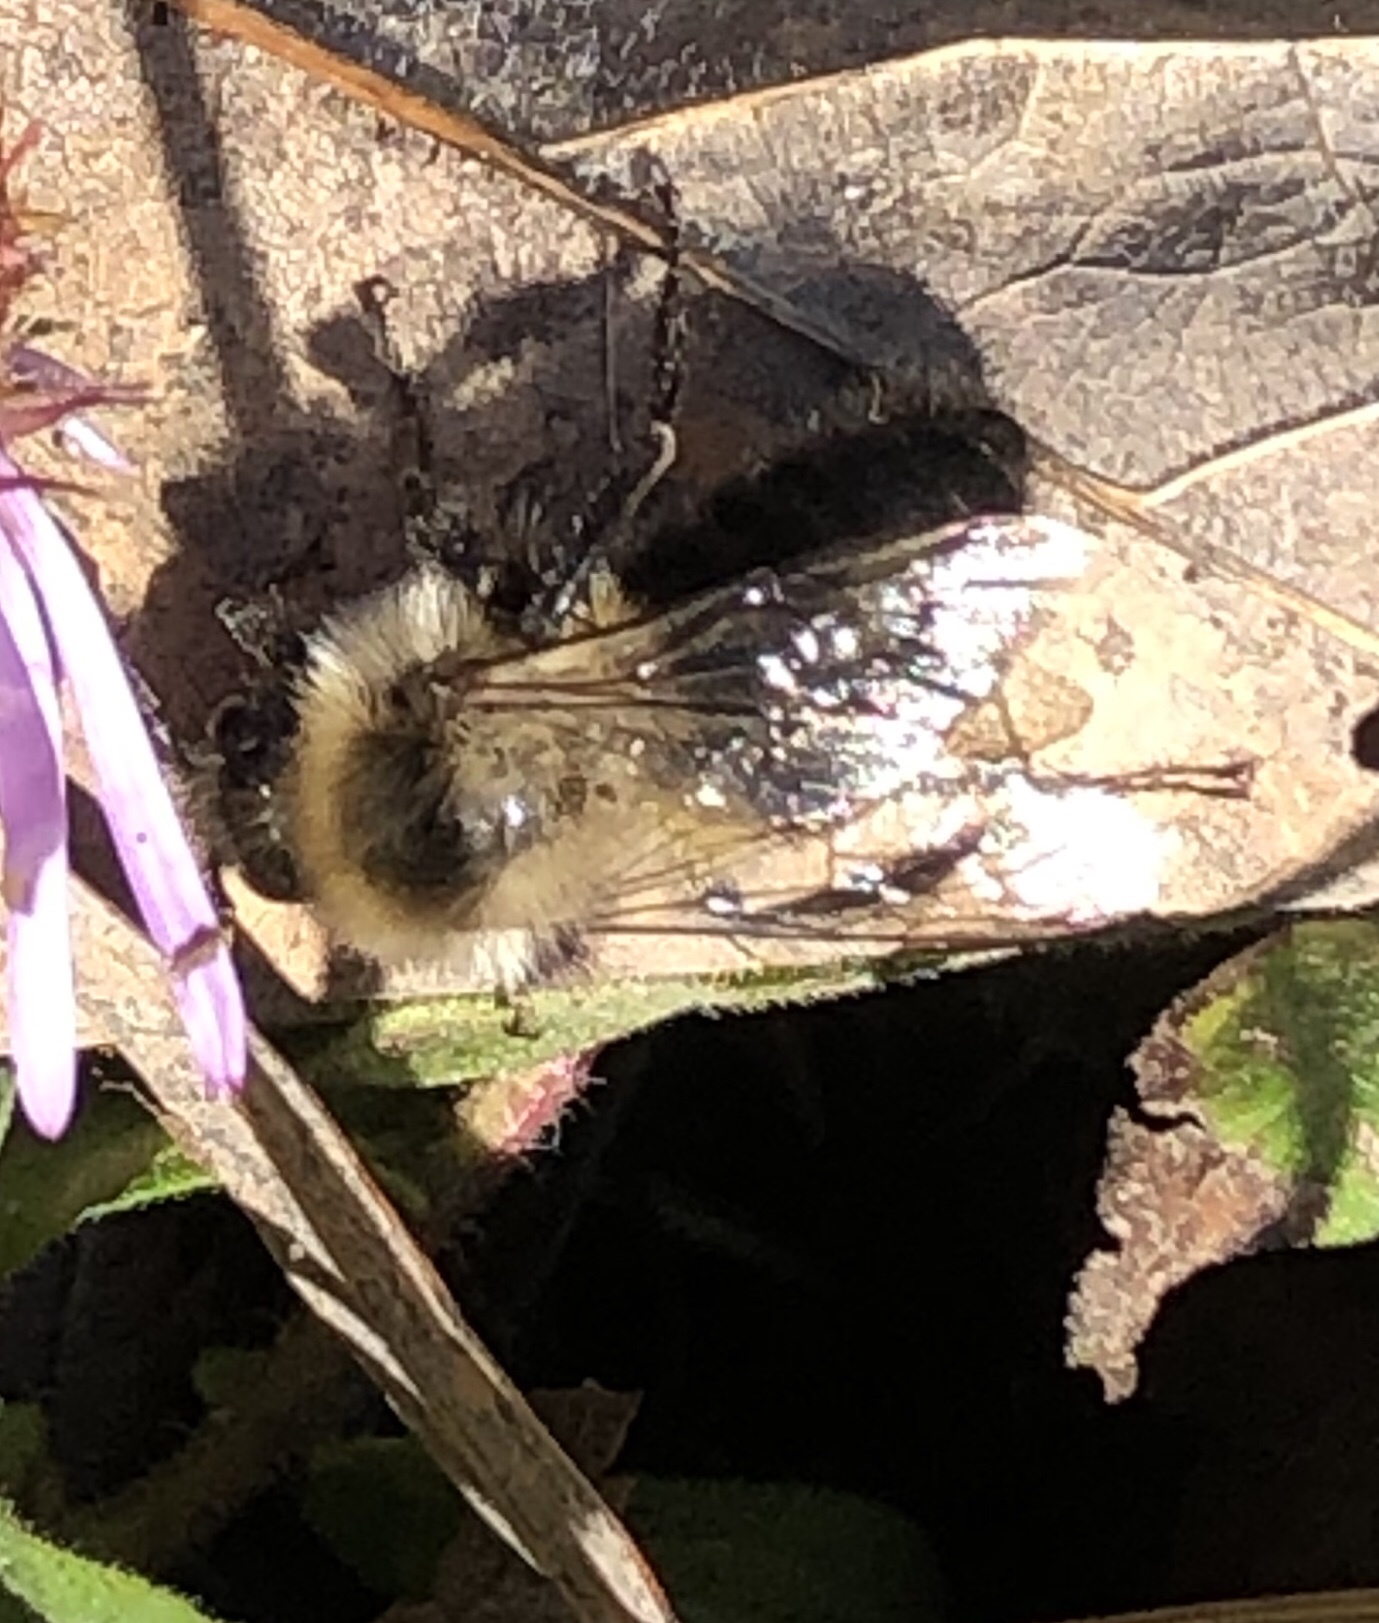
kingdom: Animalia
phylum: Arthropoda
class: Insecta
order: Hymenoptera
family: Apidae
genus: Bombus
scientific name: Bombus impatiens
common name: Common eastern bumble bee
